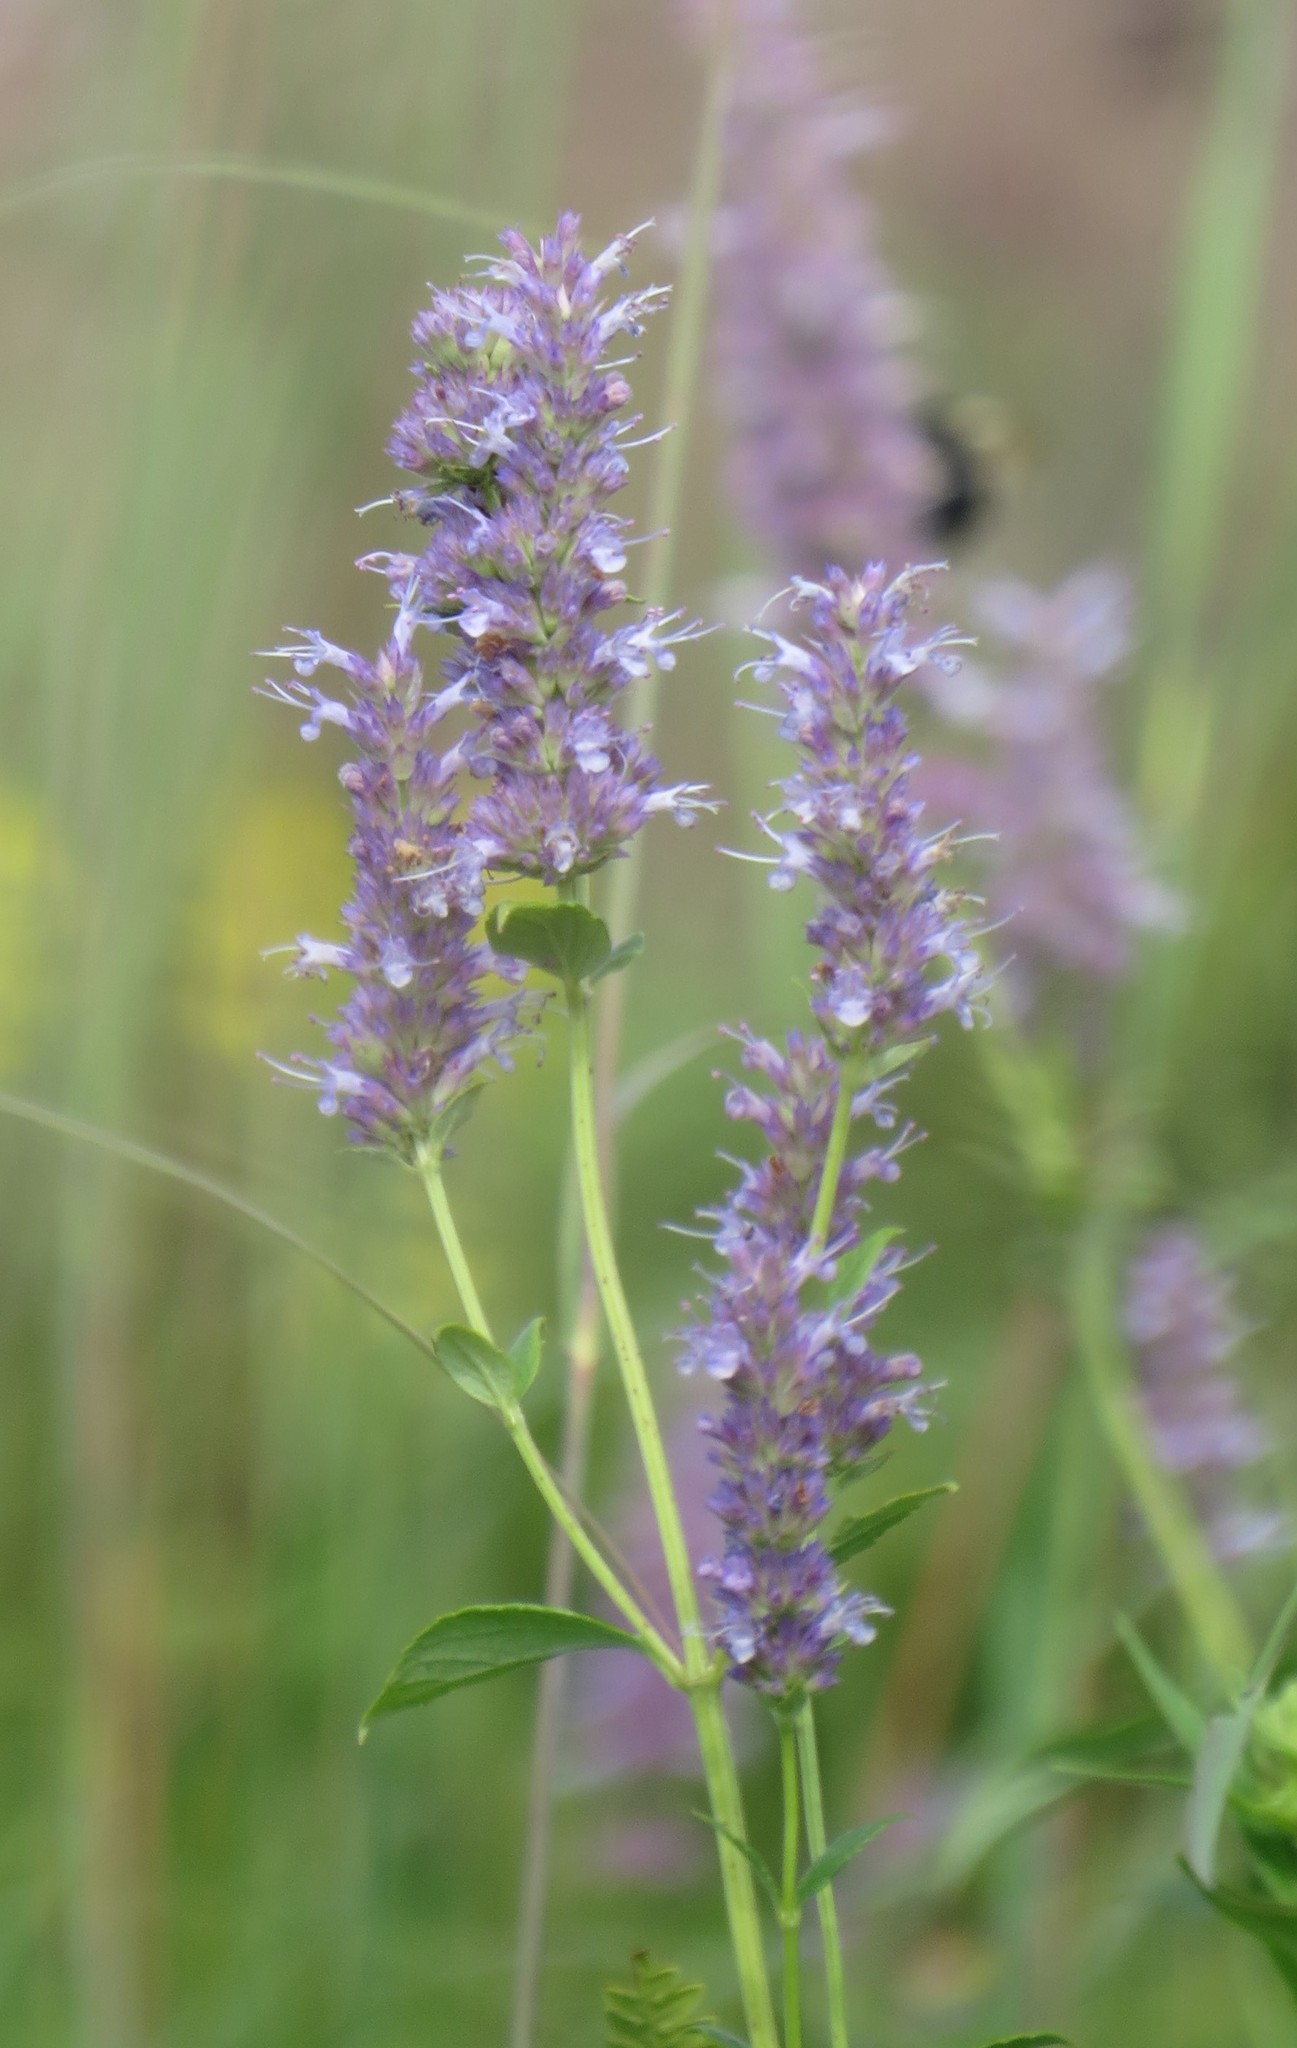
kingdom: Plantae
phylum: Tracheophyta
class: Magnoliopsida
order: Lamiales
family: Lamiaceae
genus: Agastache
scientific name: Agastache foeniculum
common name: Anise hyssop
